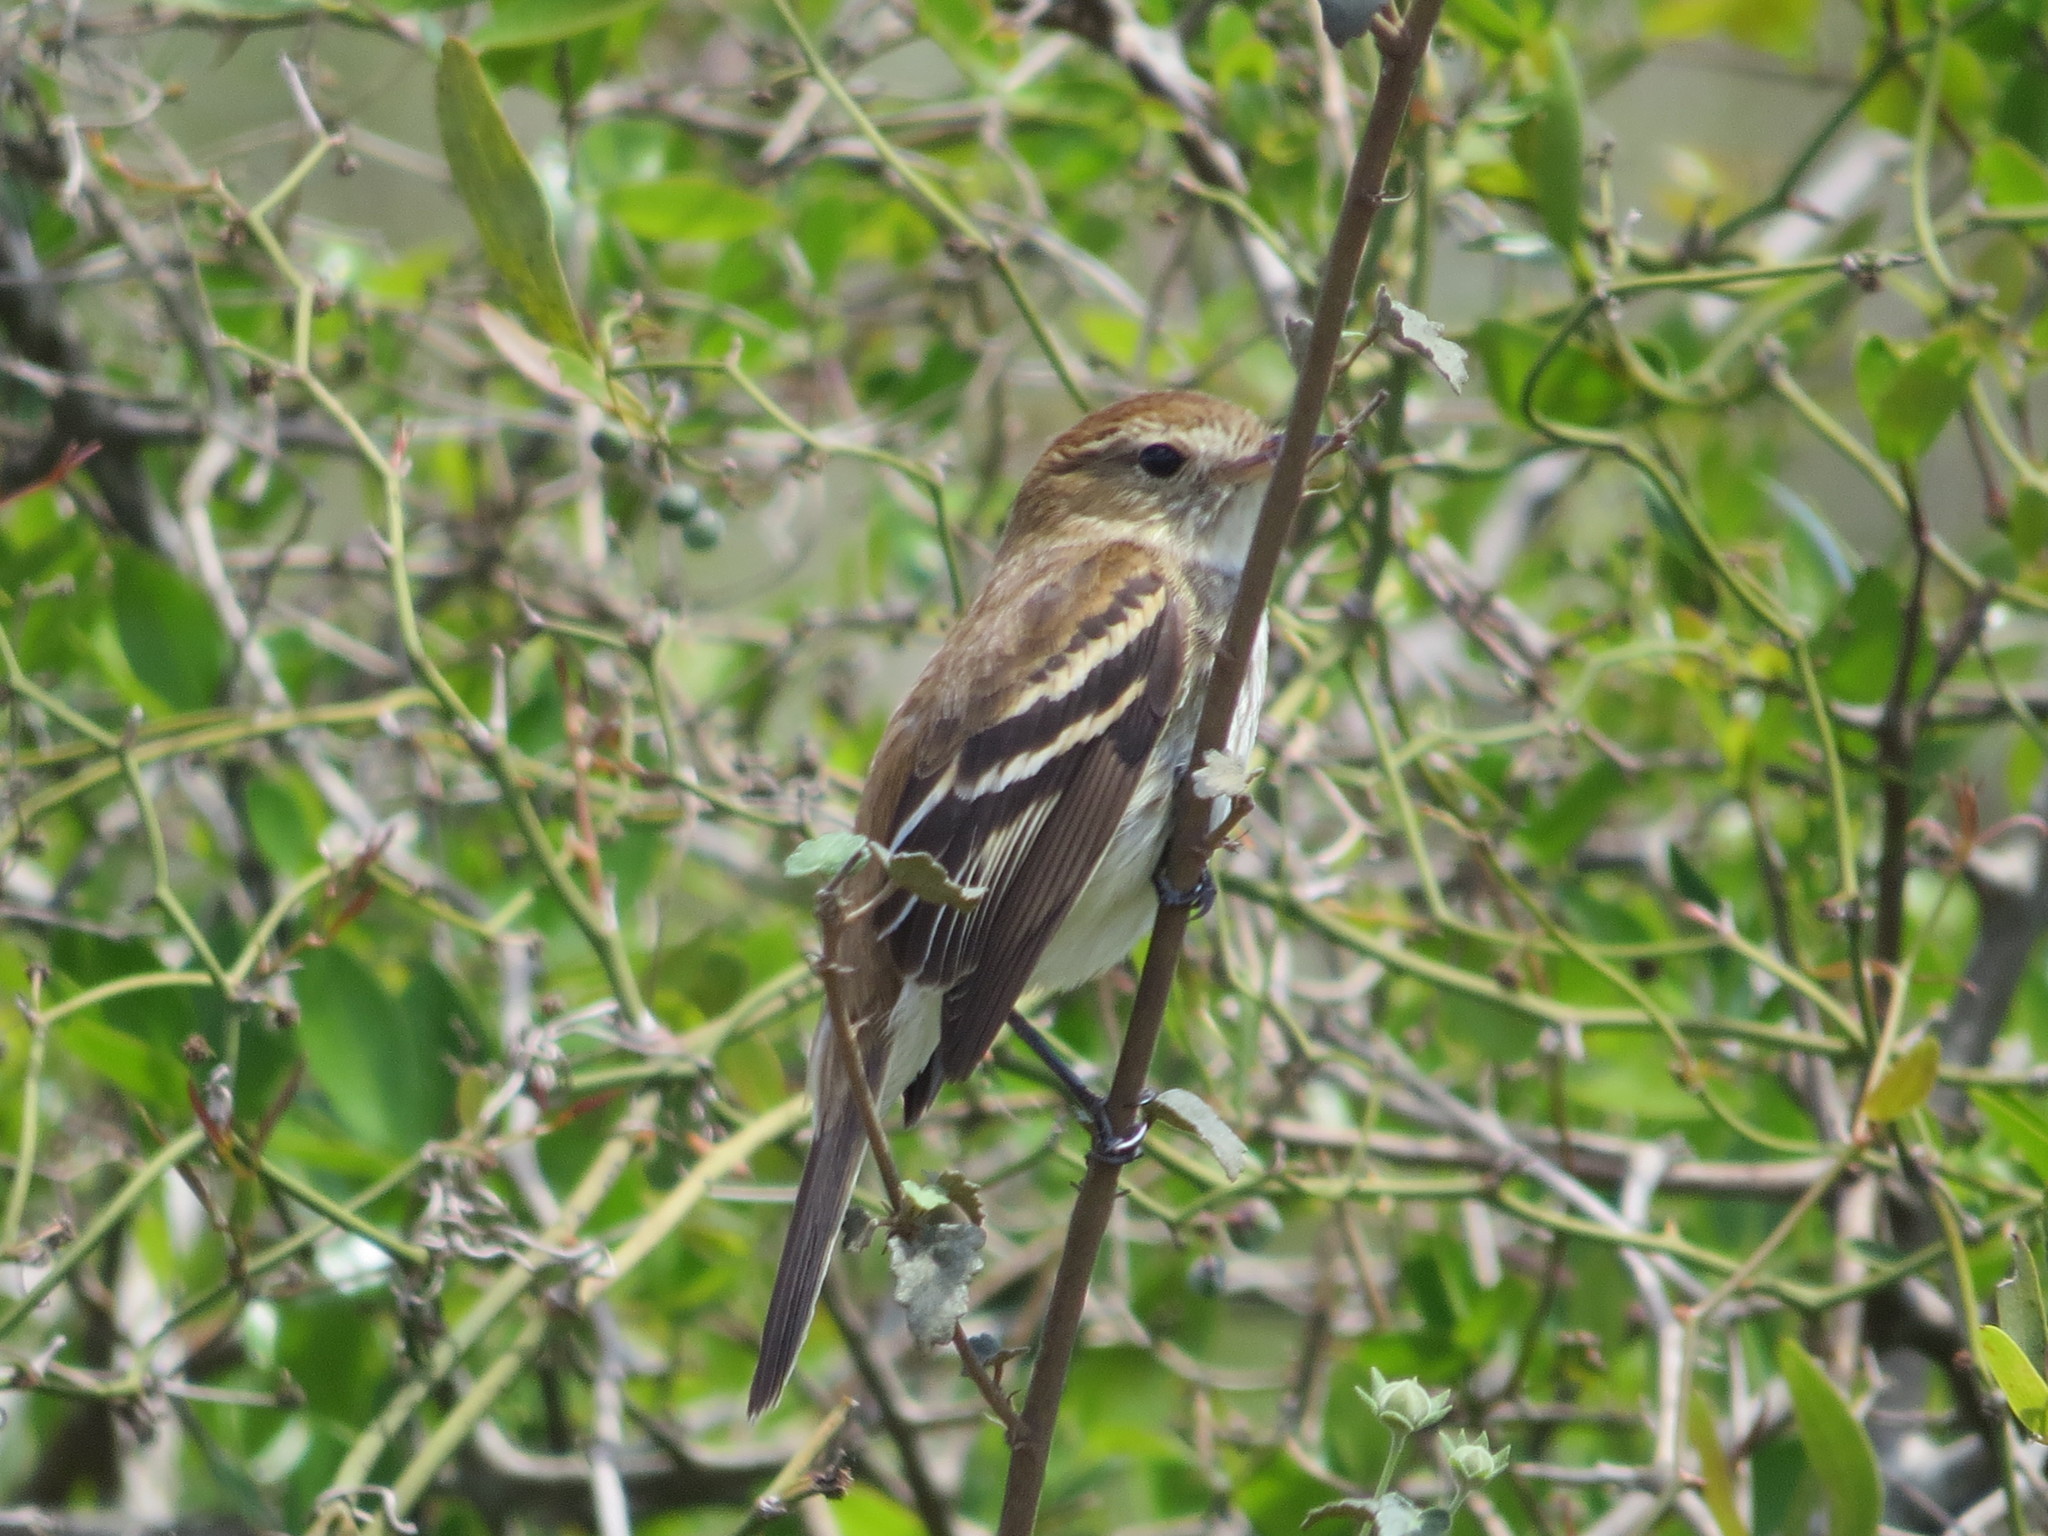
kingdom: Animalia
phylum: Chordata
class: Aves
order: Passeriformes
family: Tyrannidae
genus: Myiophobus
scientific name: Myiophobus fasciatus
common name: Bran-colored flycatcher
